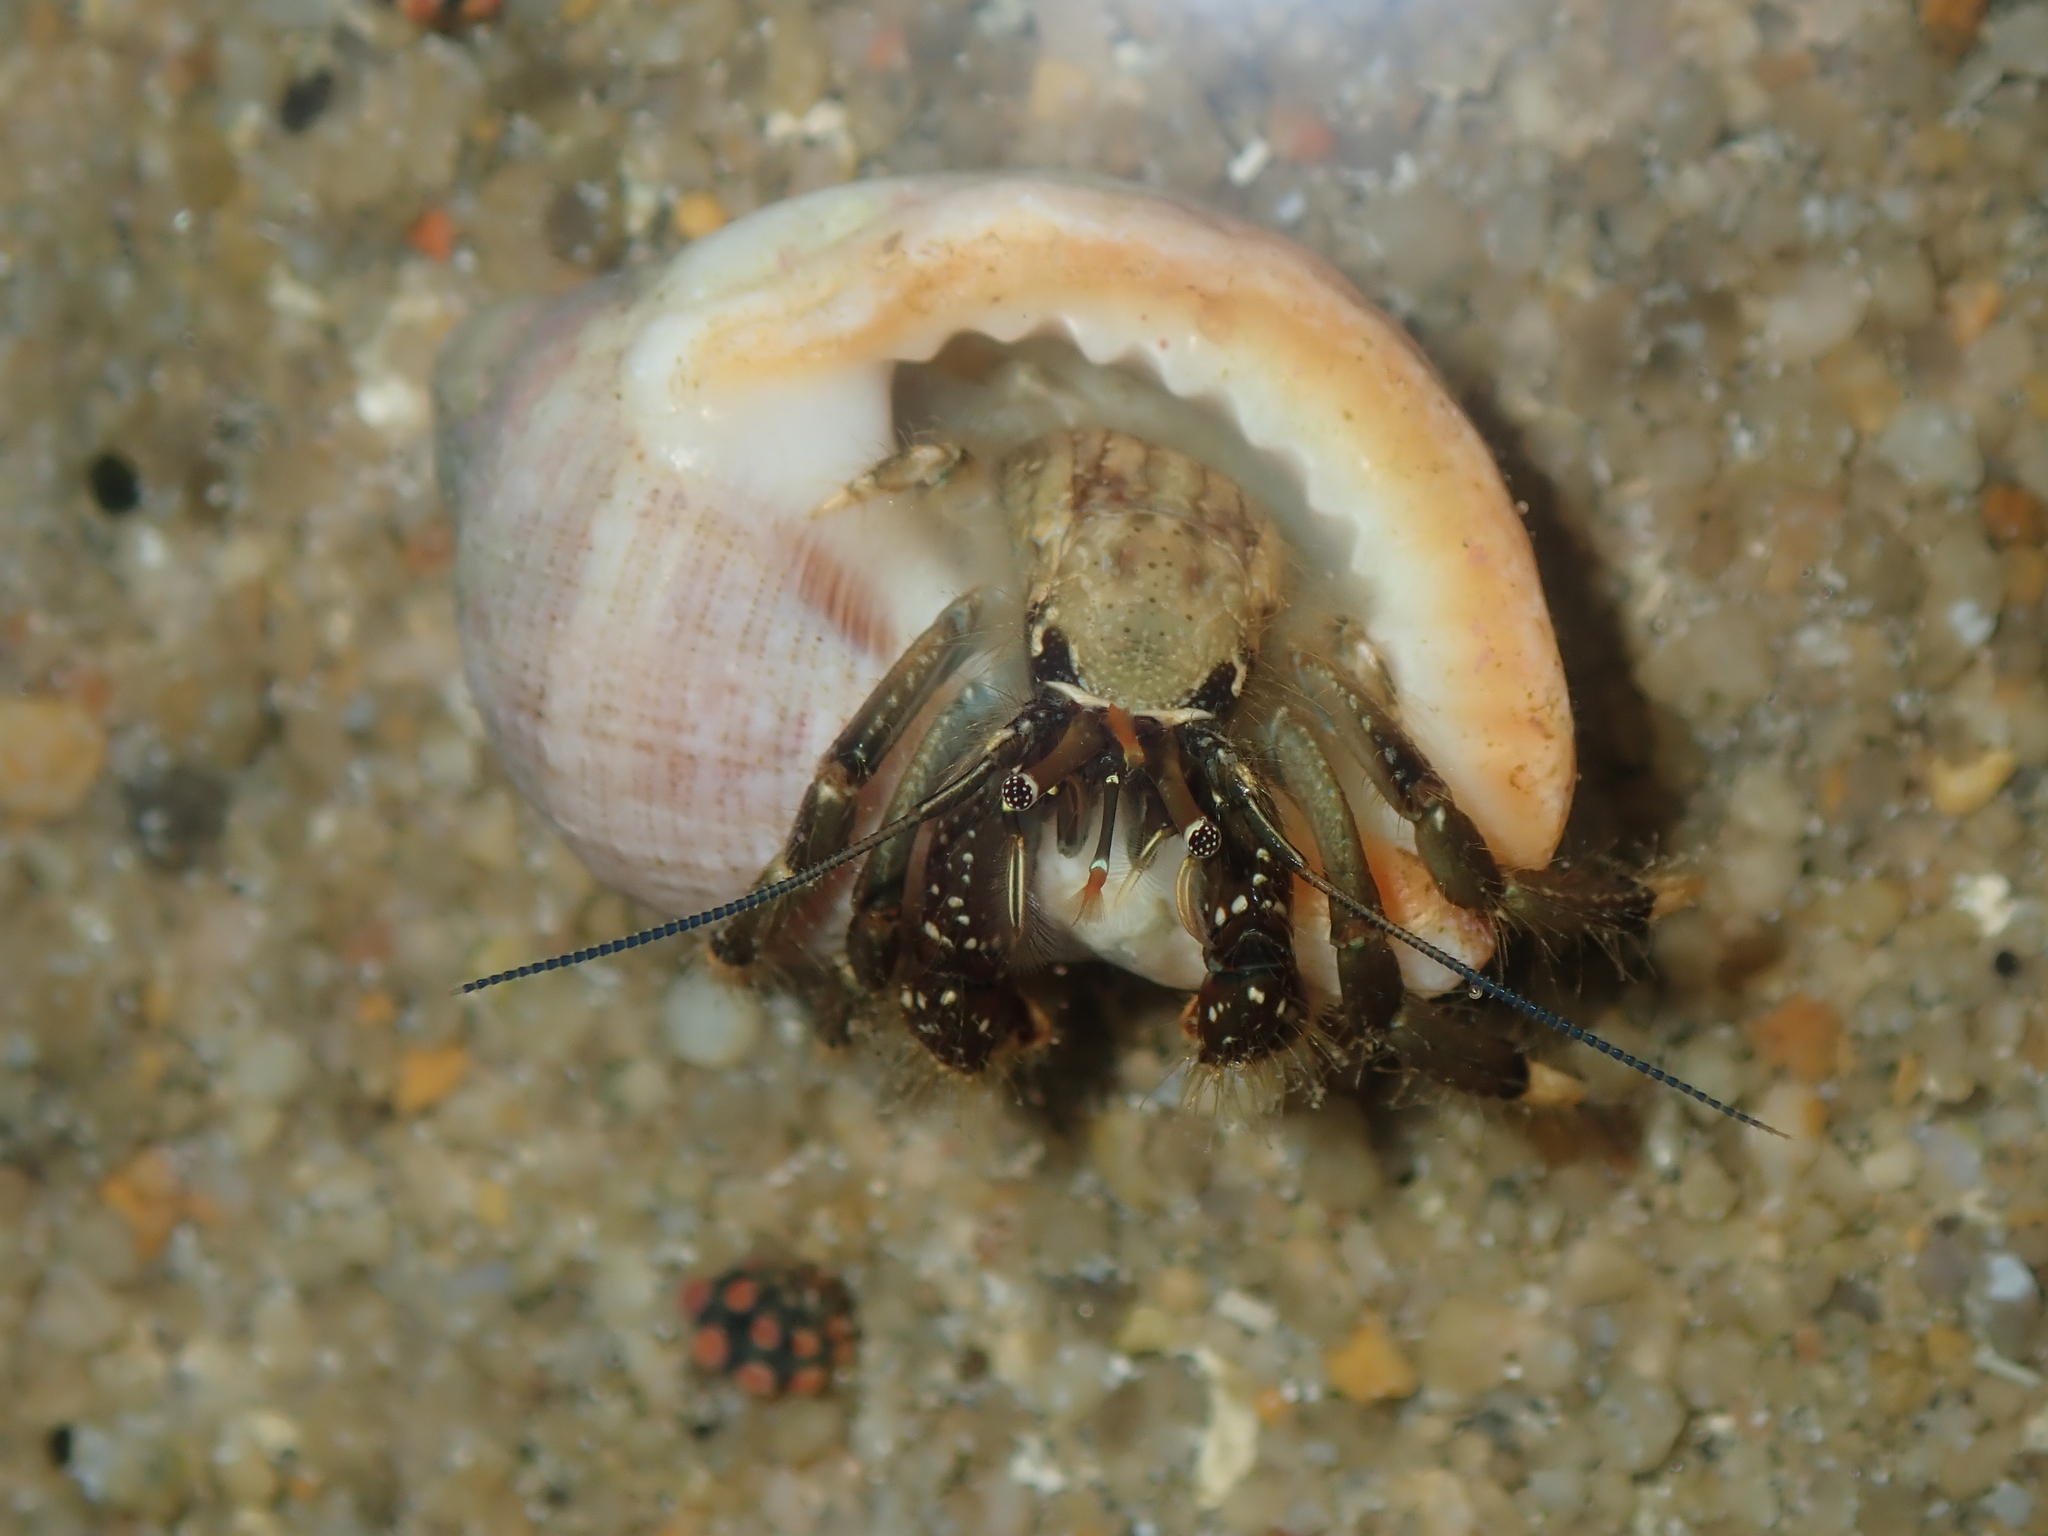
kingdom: Animalia
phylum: Arthropoda
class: Malacostraca
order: Decapoda
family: Diogenidae
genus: Clibanarius
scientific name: Clibanarius virescens
